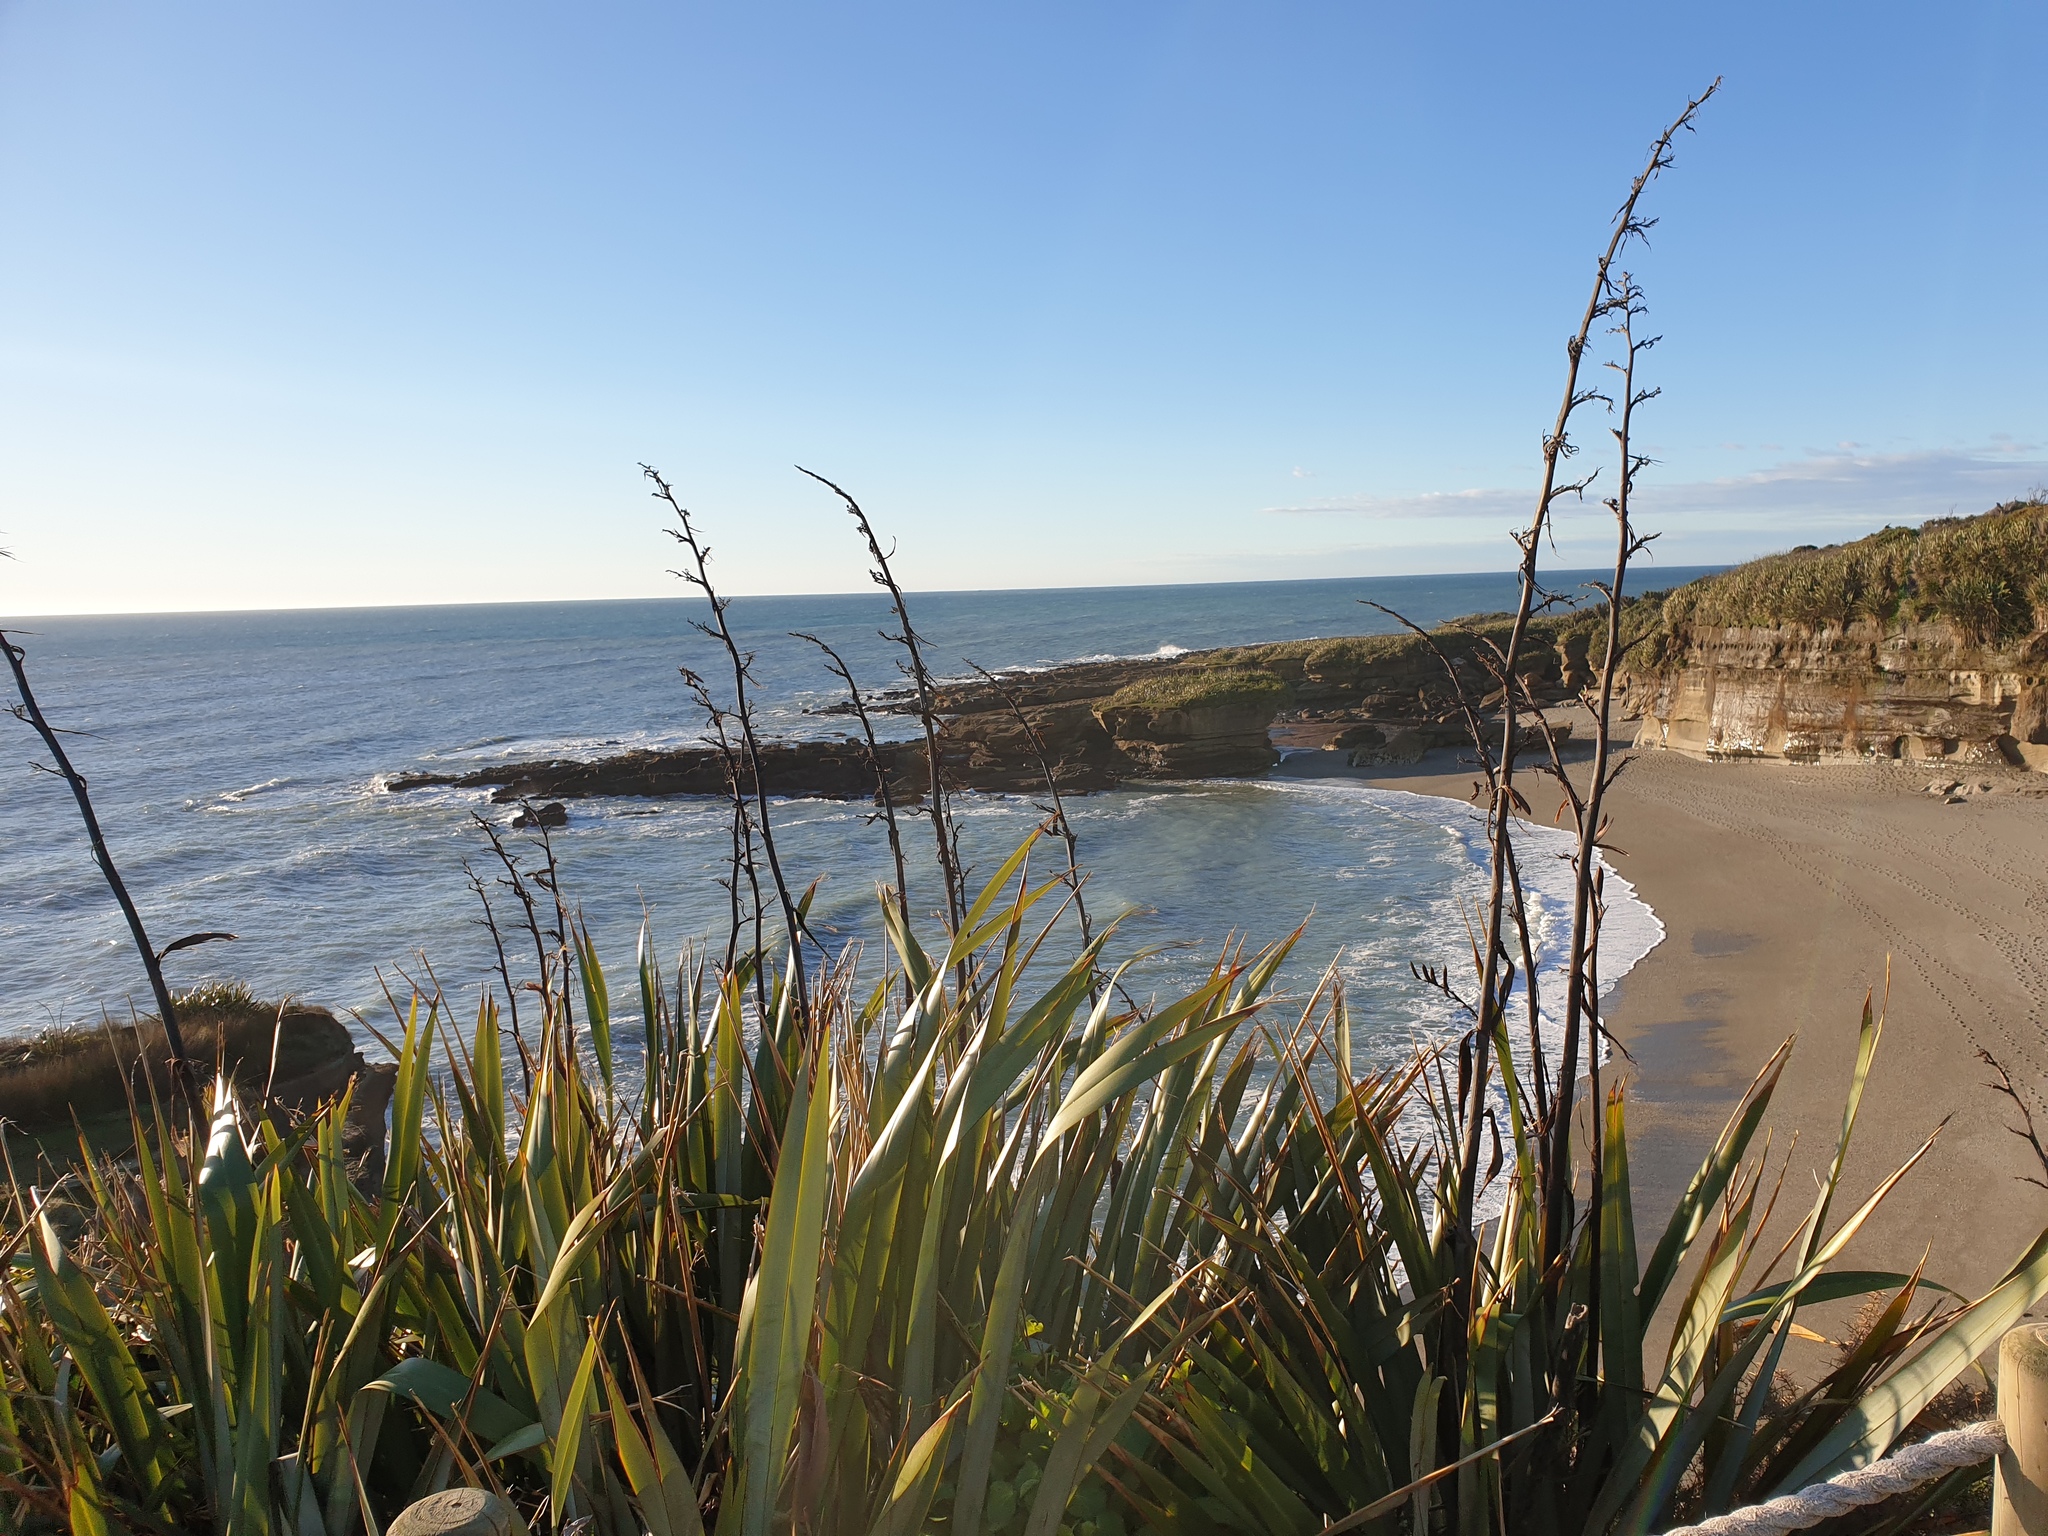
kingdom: Plantae
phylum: Tracheophyta
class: Liliopsida
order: Asparagales
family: Asphodelaceae
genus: Phormium
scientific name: Phormium colensoi
